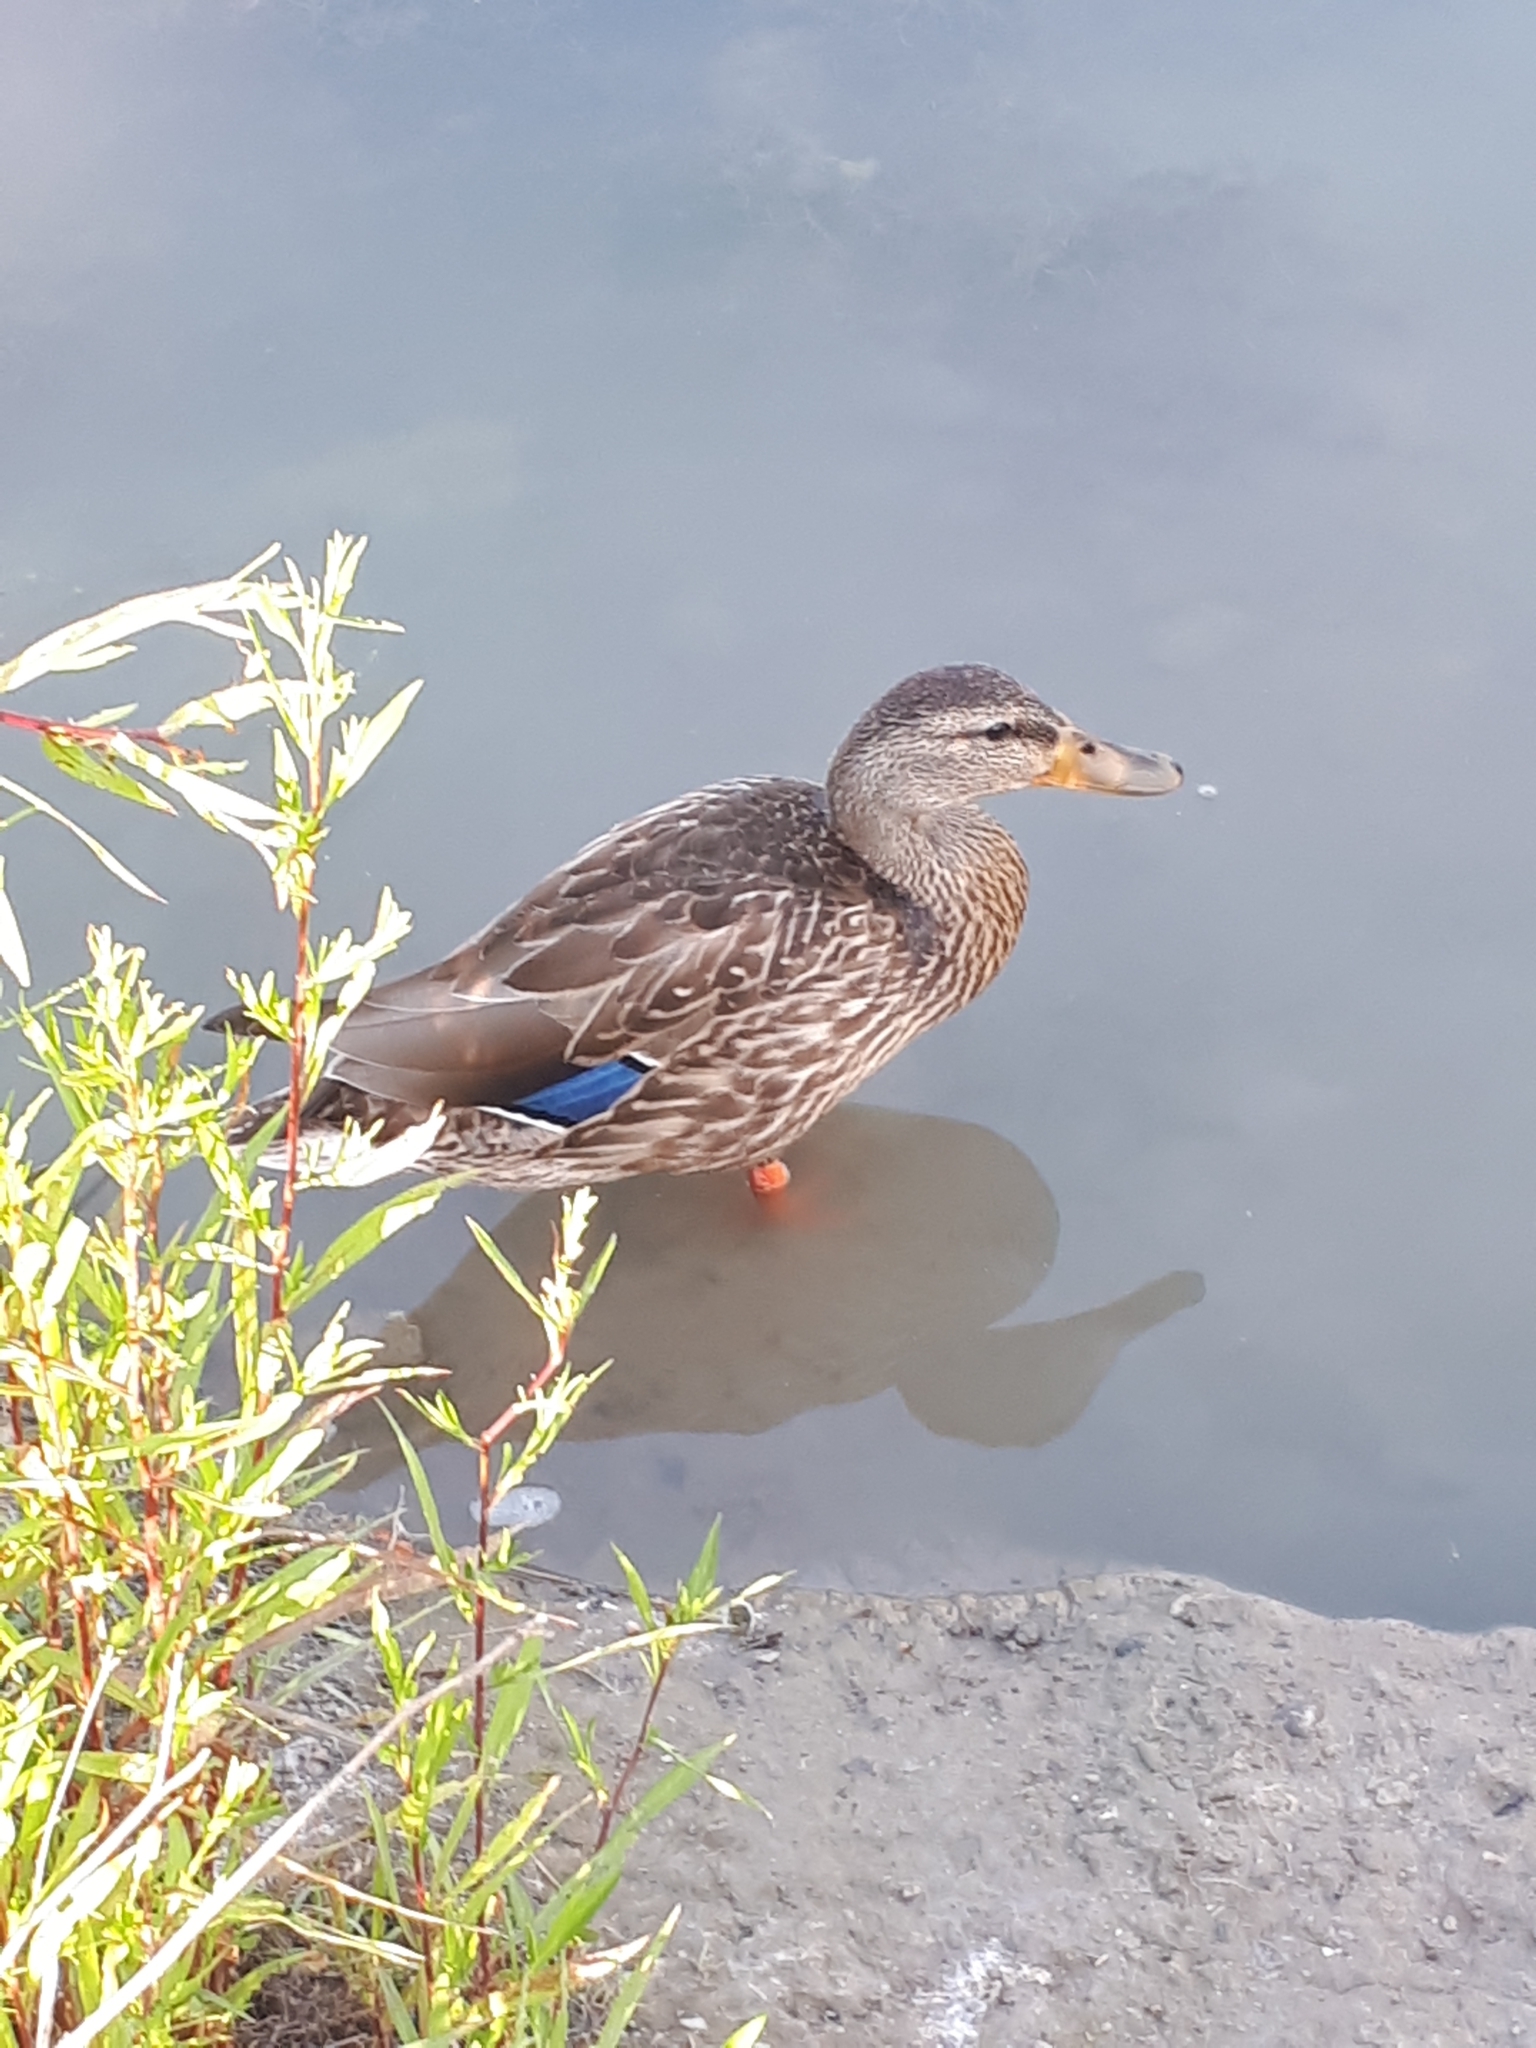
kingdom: Animalia
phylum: Chordata
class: Aves
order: Anseriformes
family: Anatidae
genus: Anas
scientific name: Anas platyrhynchos
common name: Mallard
